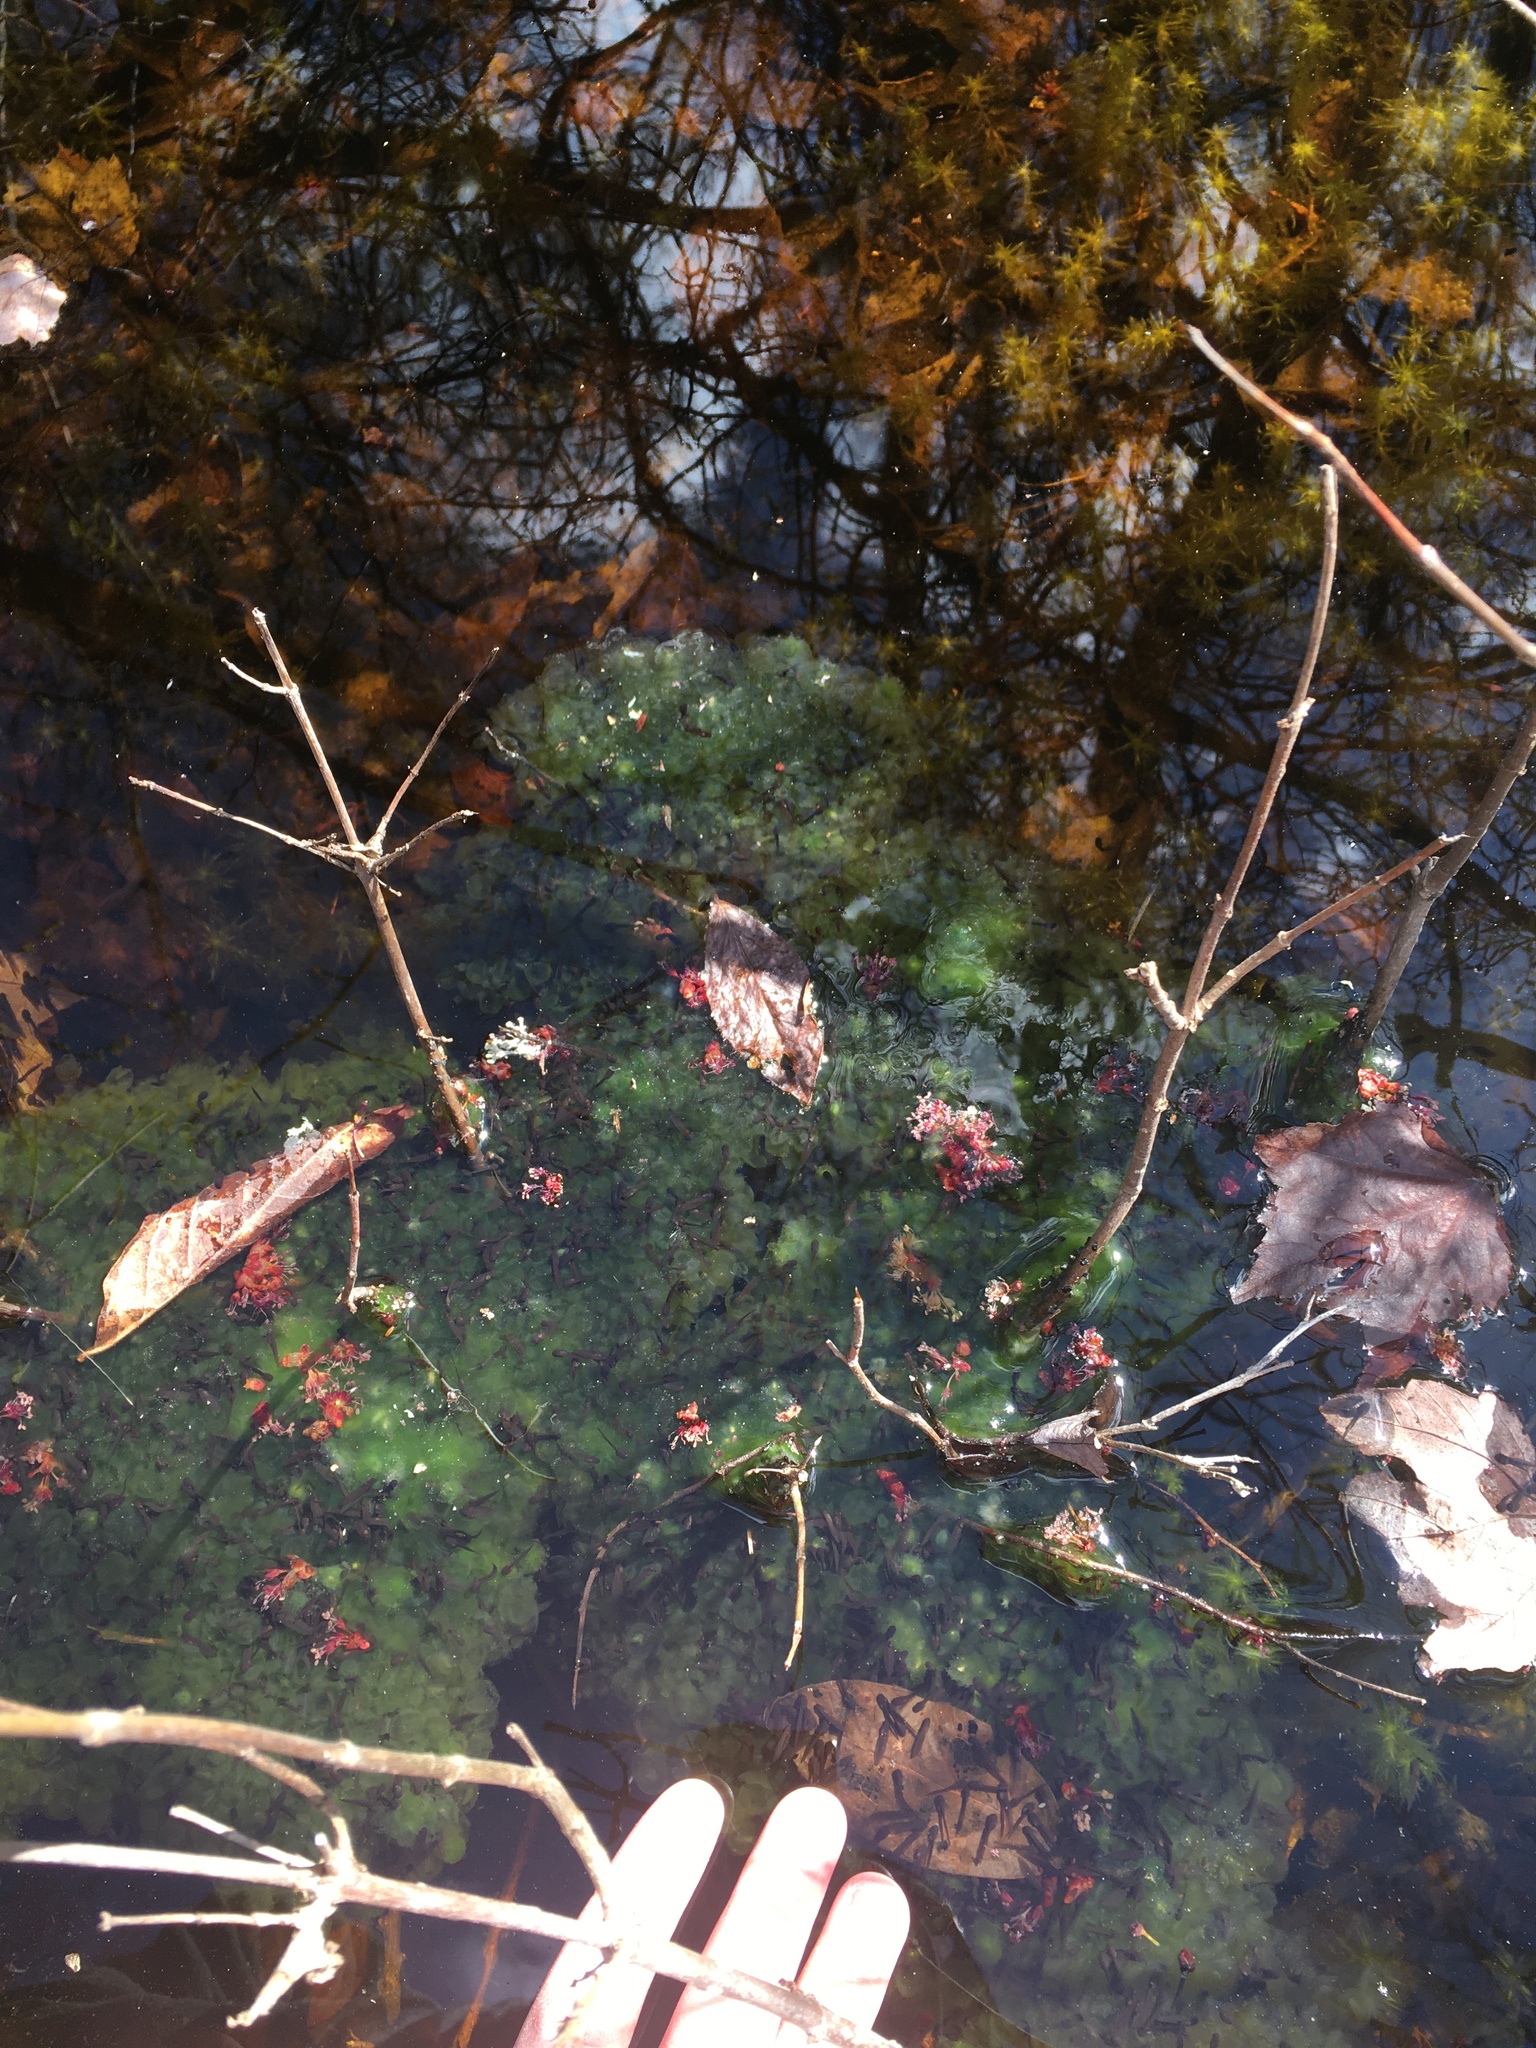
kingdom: Animalia
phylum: Chordata
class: Amphibia
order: Anura
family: Ranidae
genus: Lithobates
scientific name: Lithobates sylvaticus
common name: Wood frog
